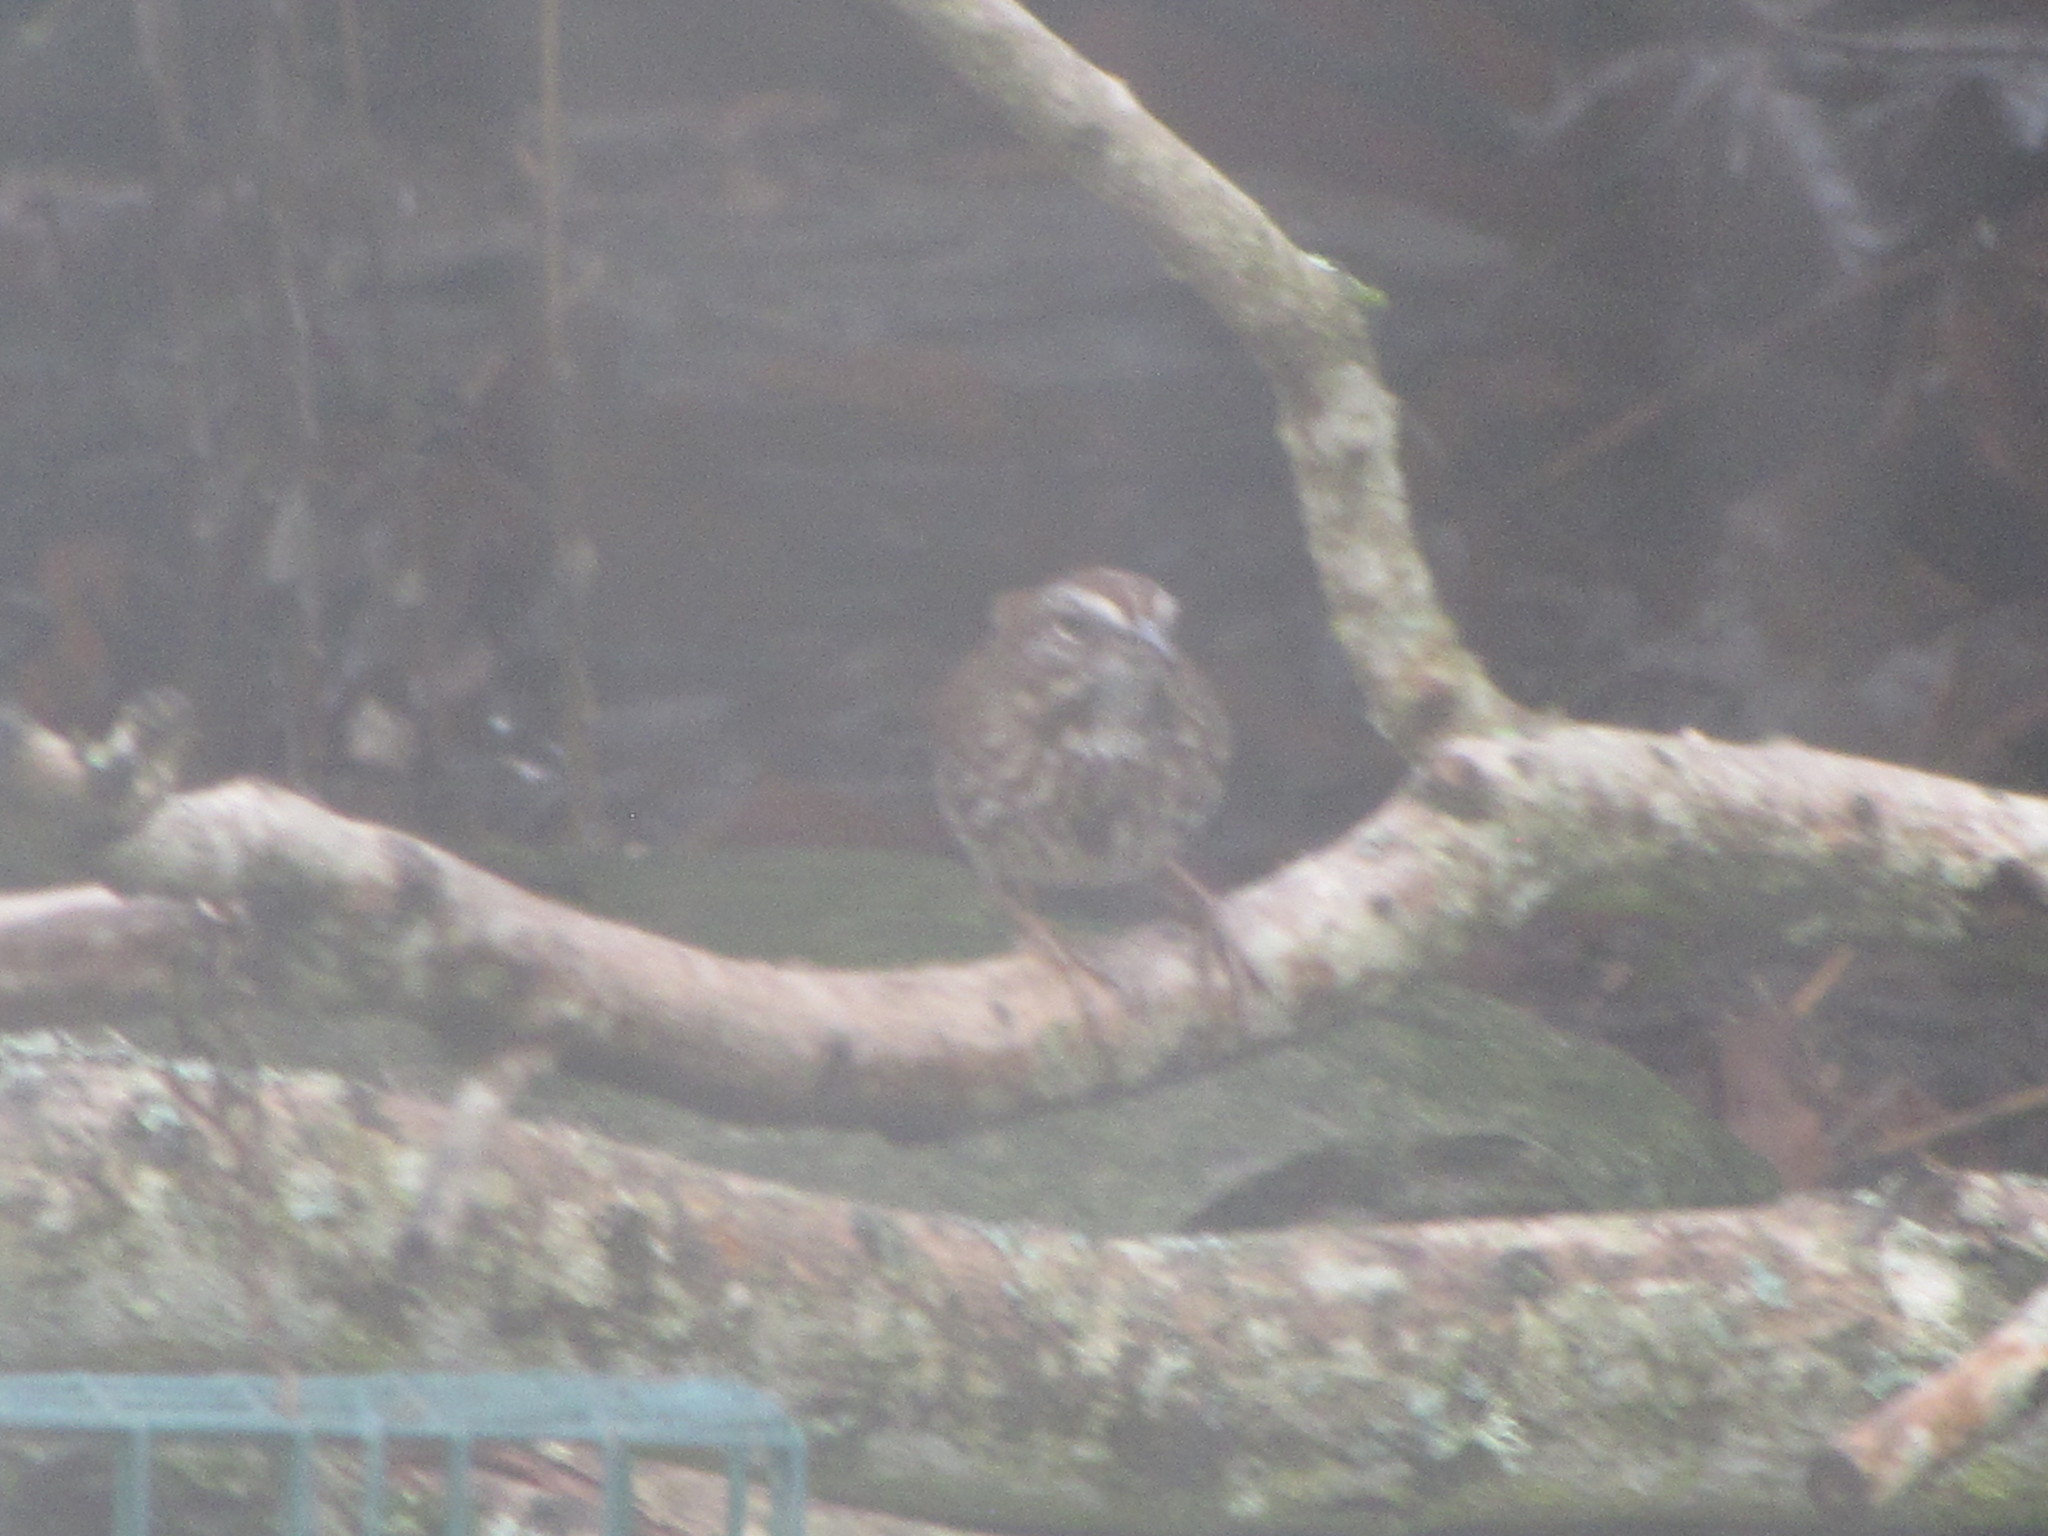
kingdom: Animalia
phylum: Chordata
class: Aves
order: Passeriformes
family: Passerellidae
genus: Melospiza
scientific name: Melospiza melodia
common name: Song sparrow
